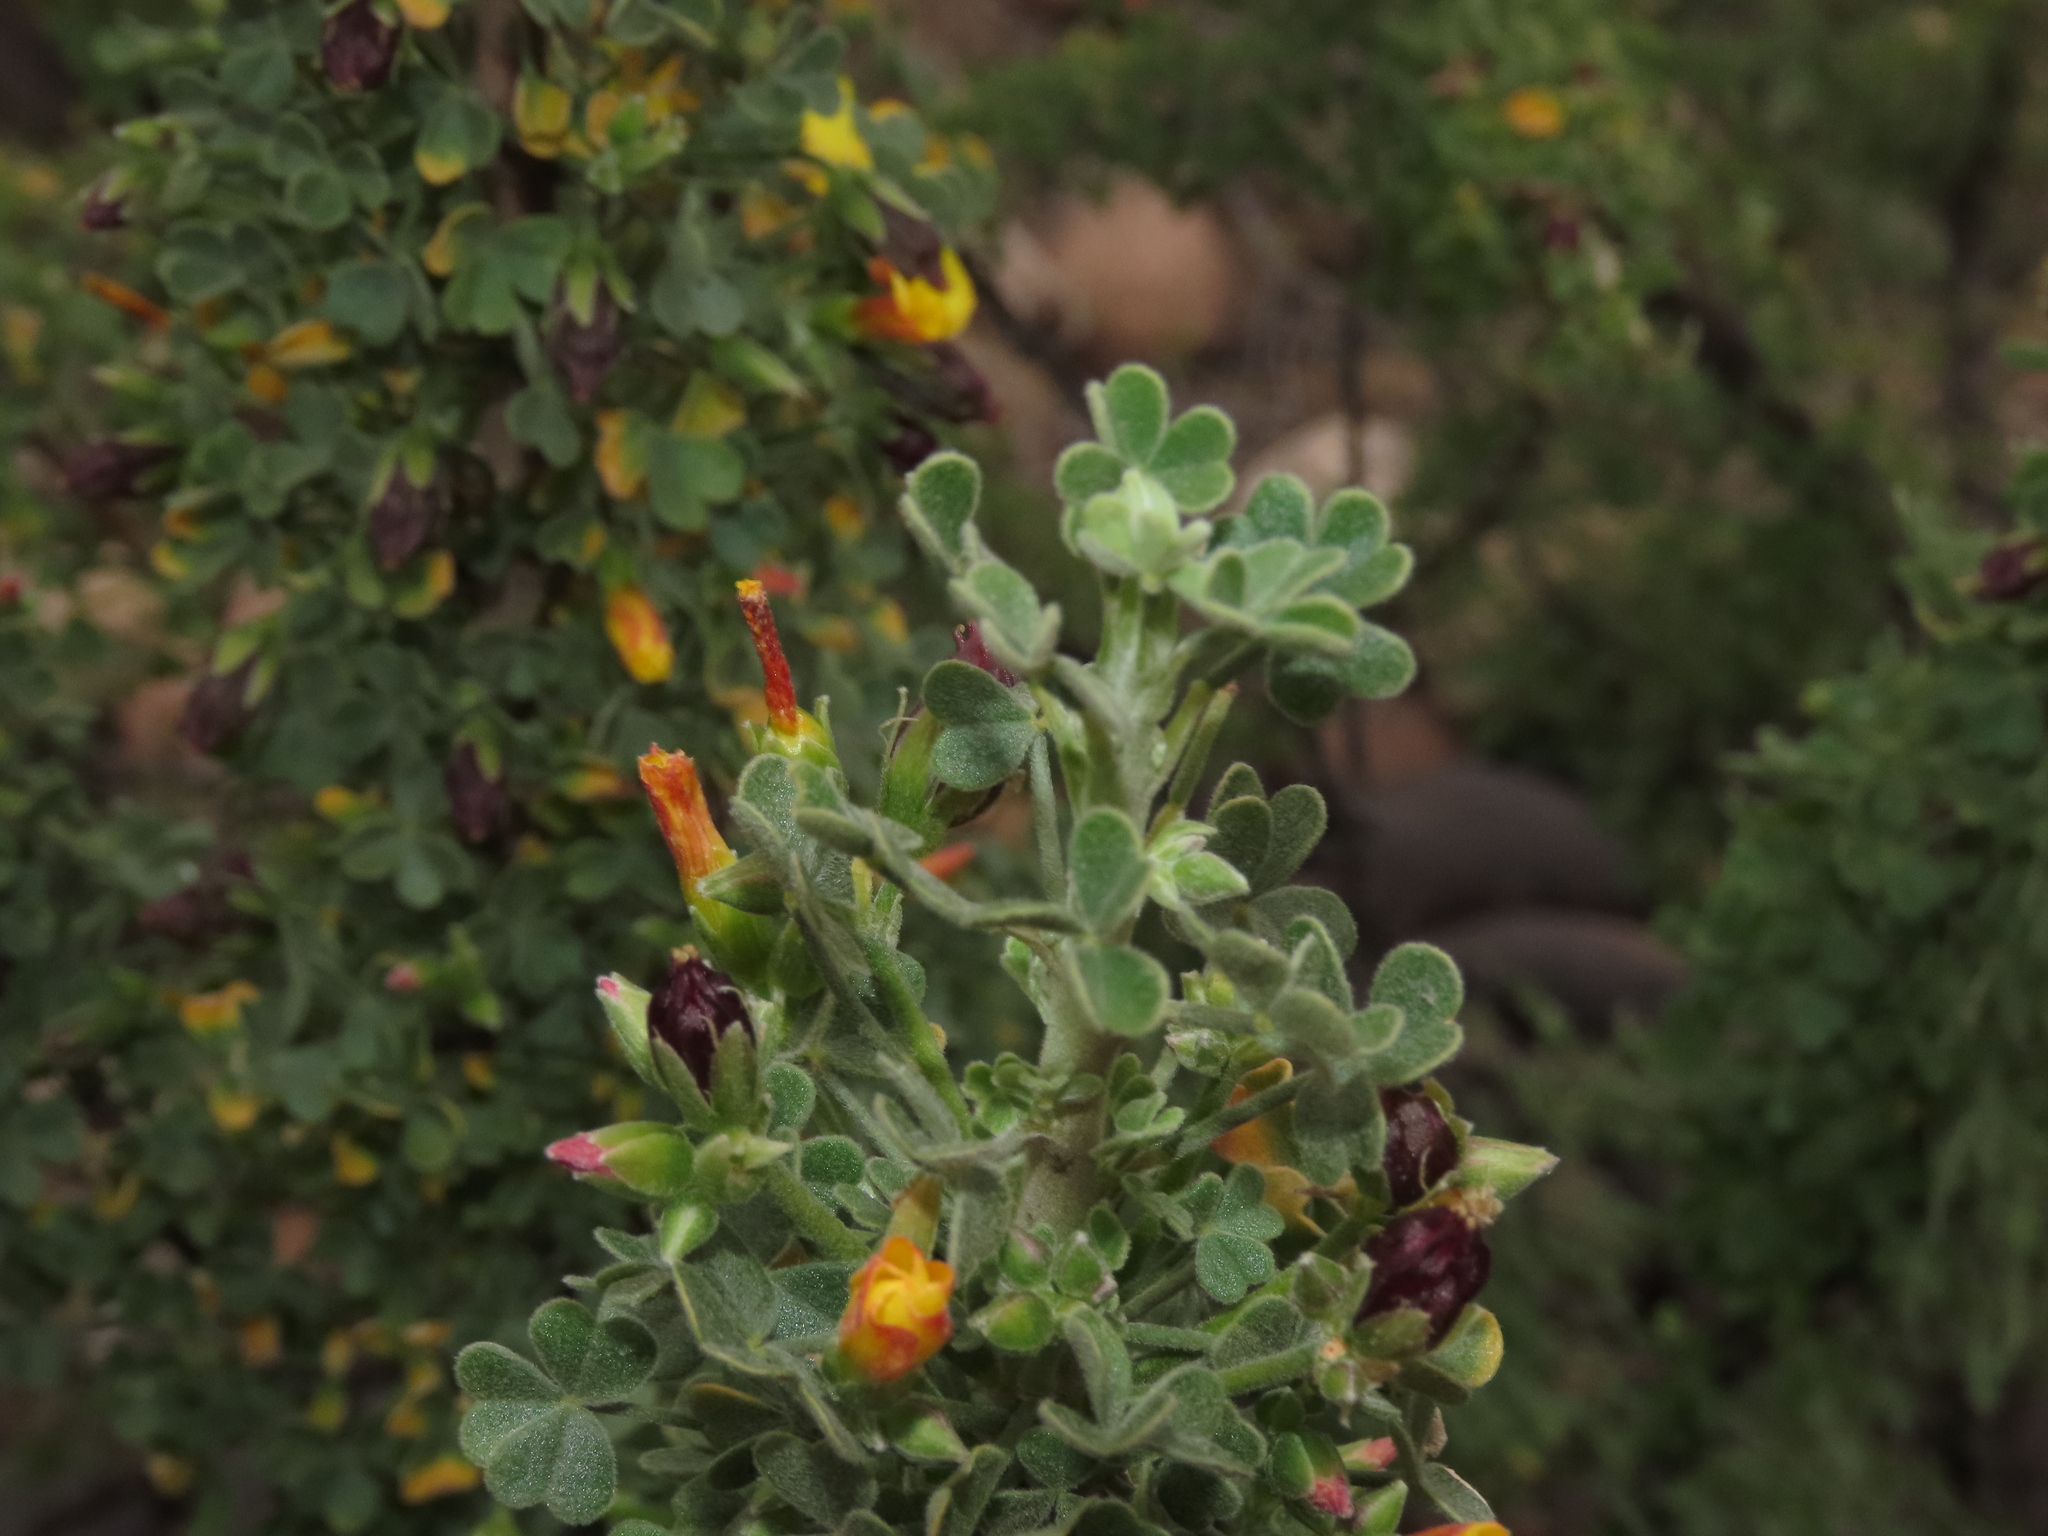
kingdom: Plantae
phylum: Tracheophyta
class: Magnoliopsida
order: Oxalidales
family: Oxalidaceae
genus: Oxalis
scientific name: Oxalis virgosa
